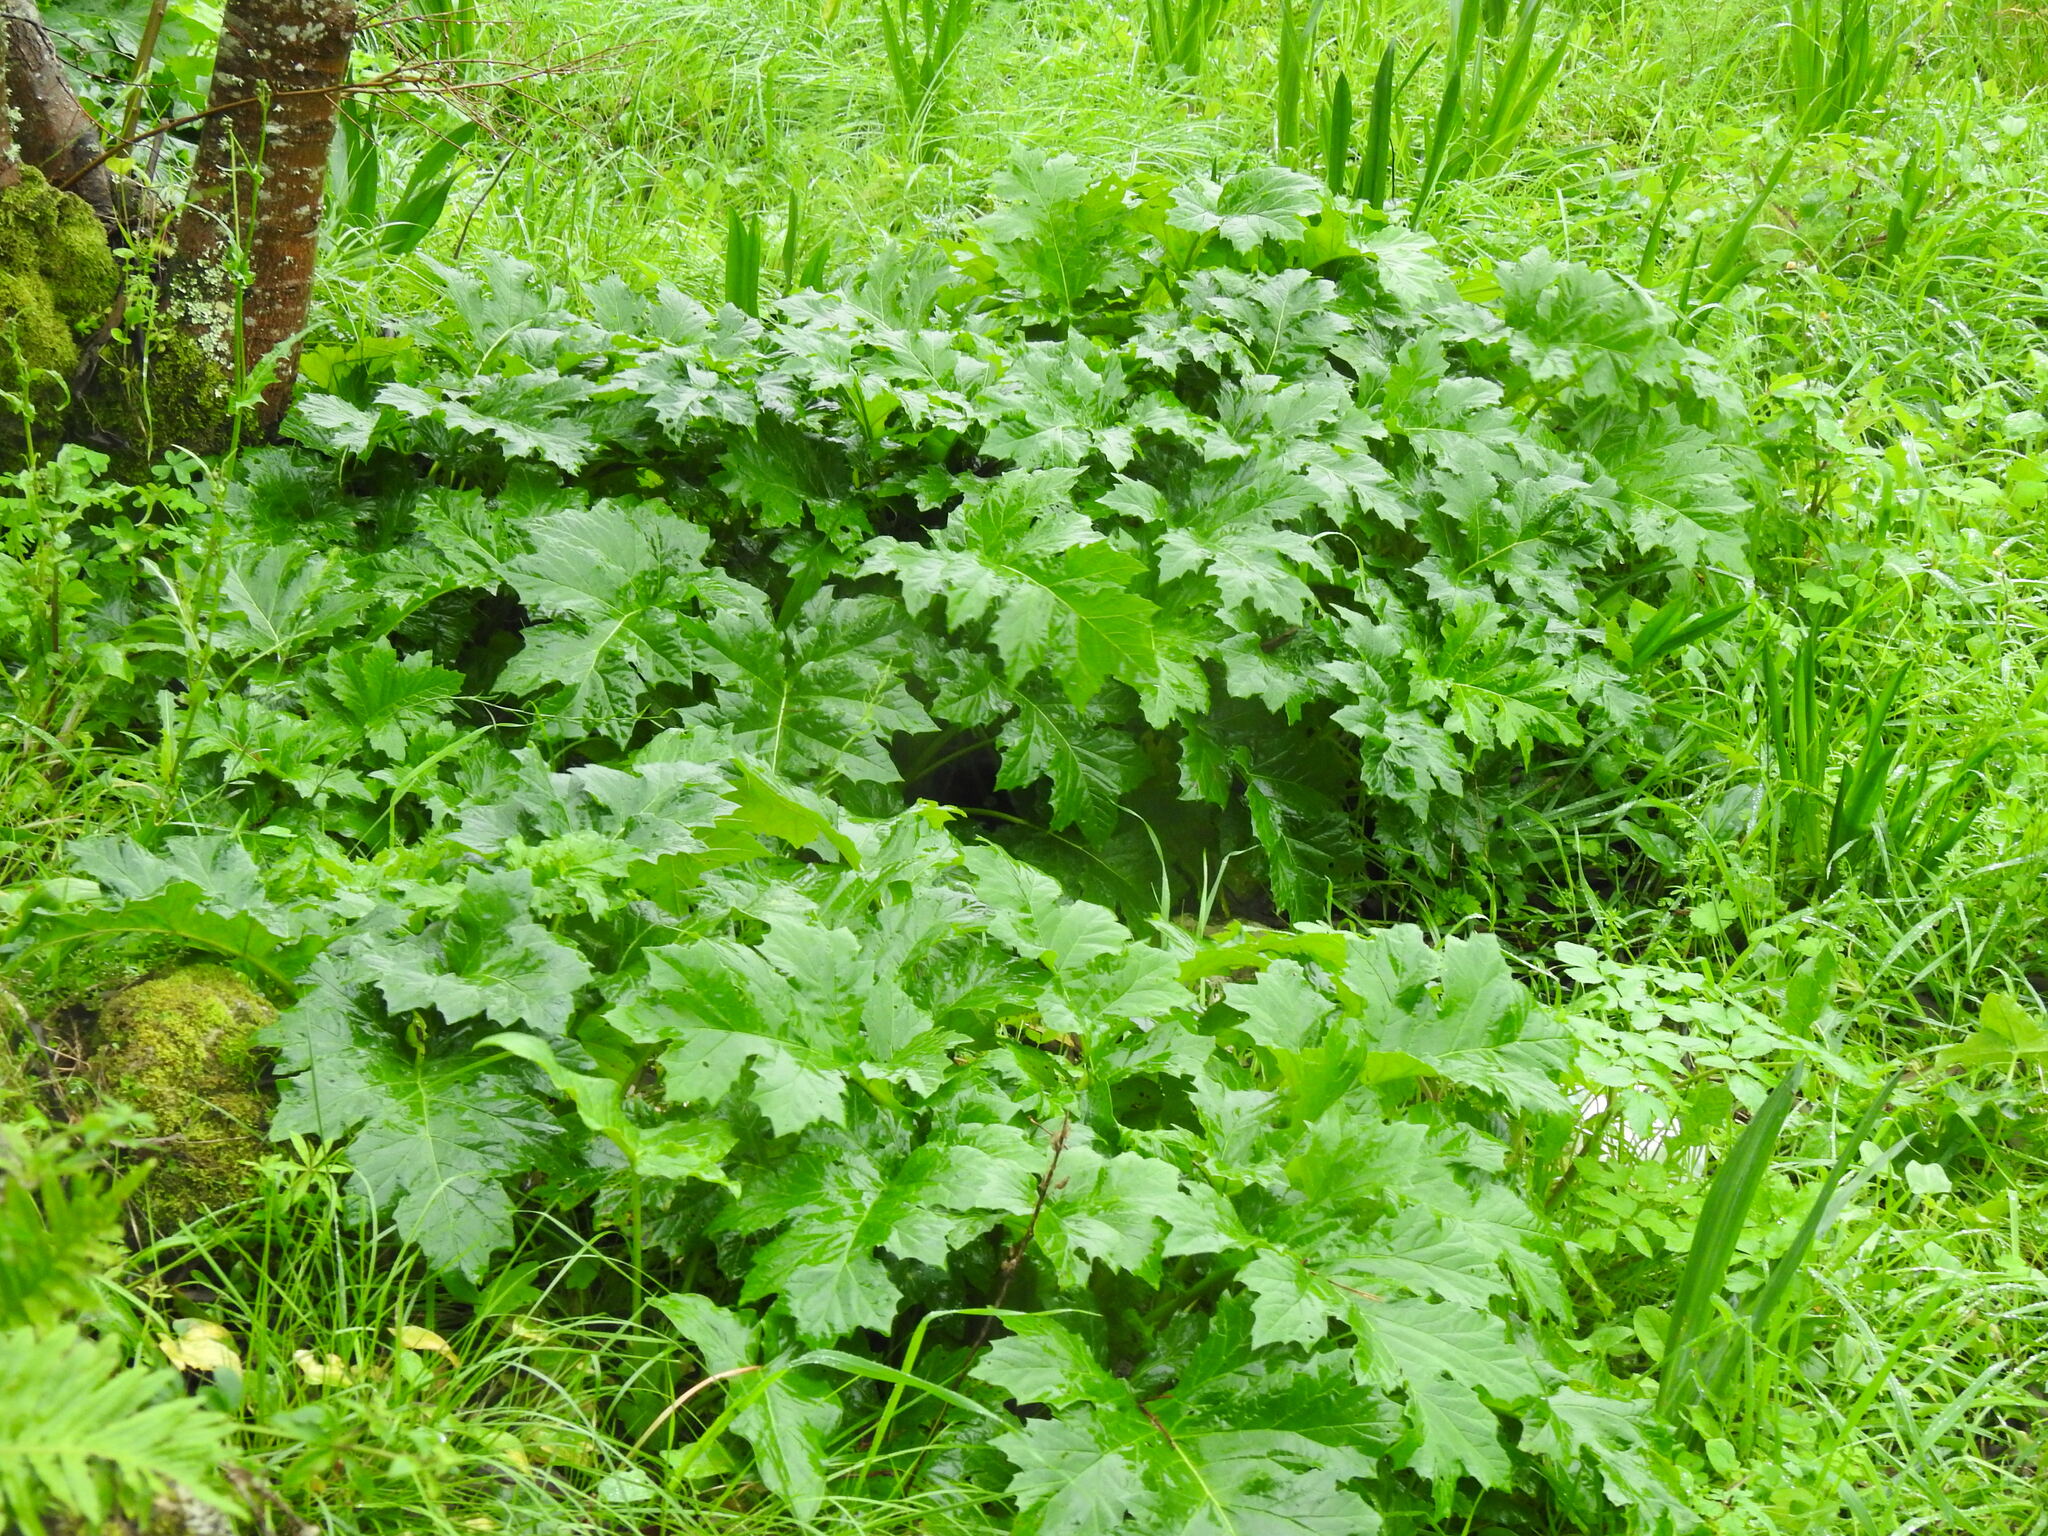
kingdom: Plantae
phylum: Tracheophyta
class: Magnoliopsida
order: Lamiales
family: Acanthaceae
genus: Acanthus
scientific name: Acanthus mollis
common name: Bear's-breech
